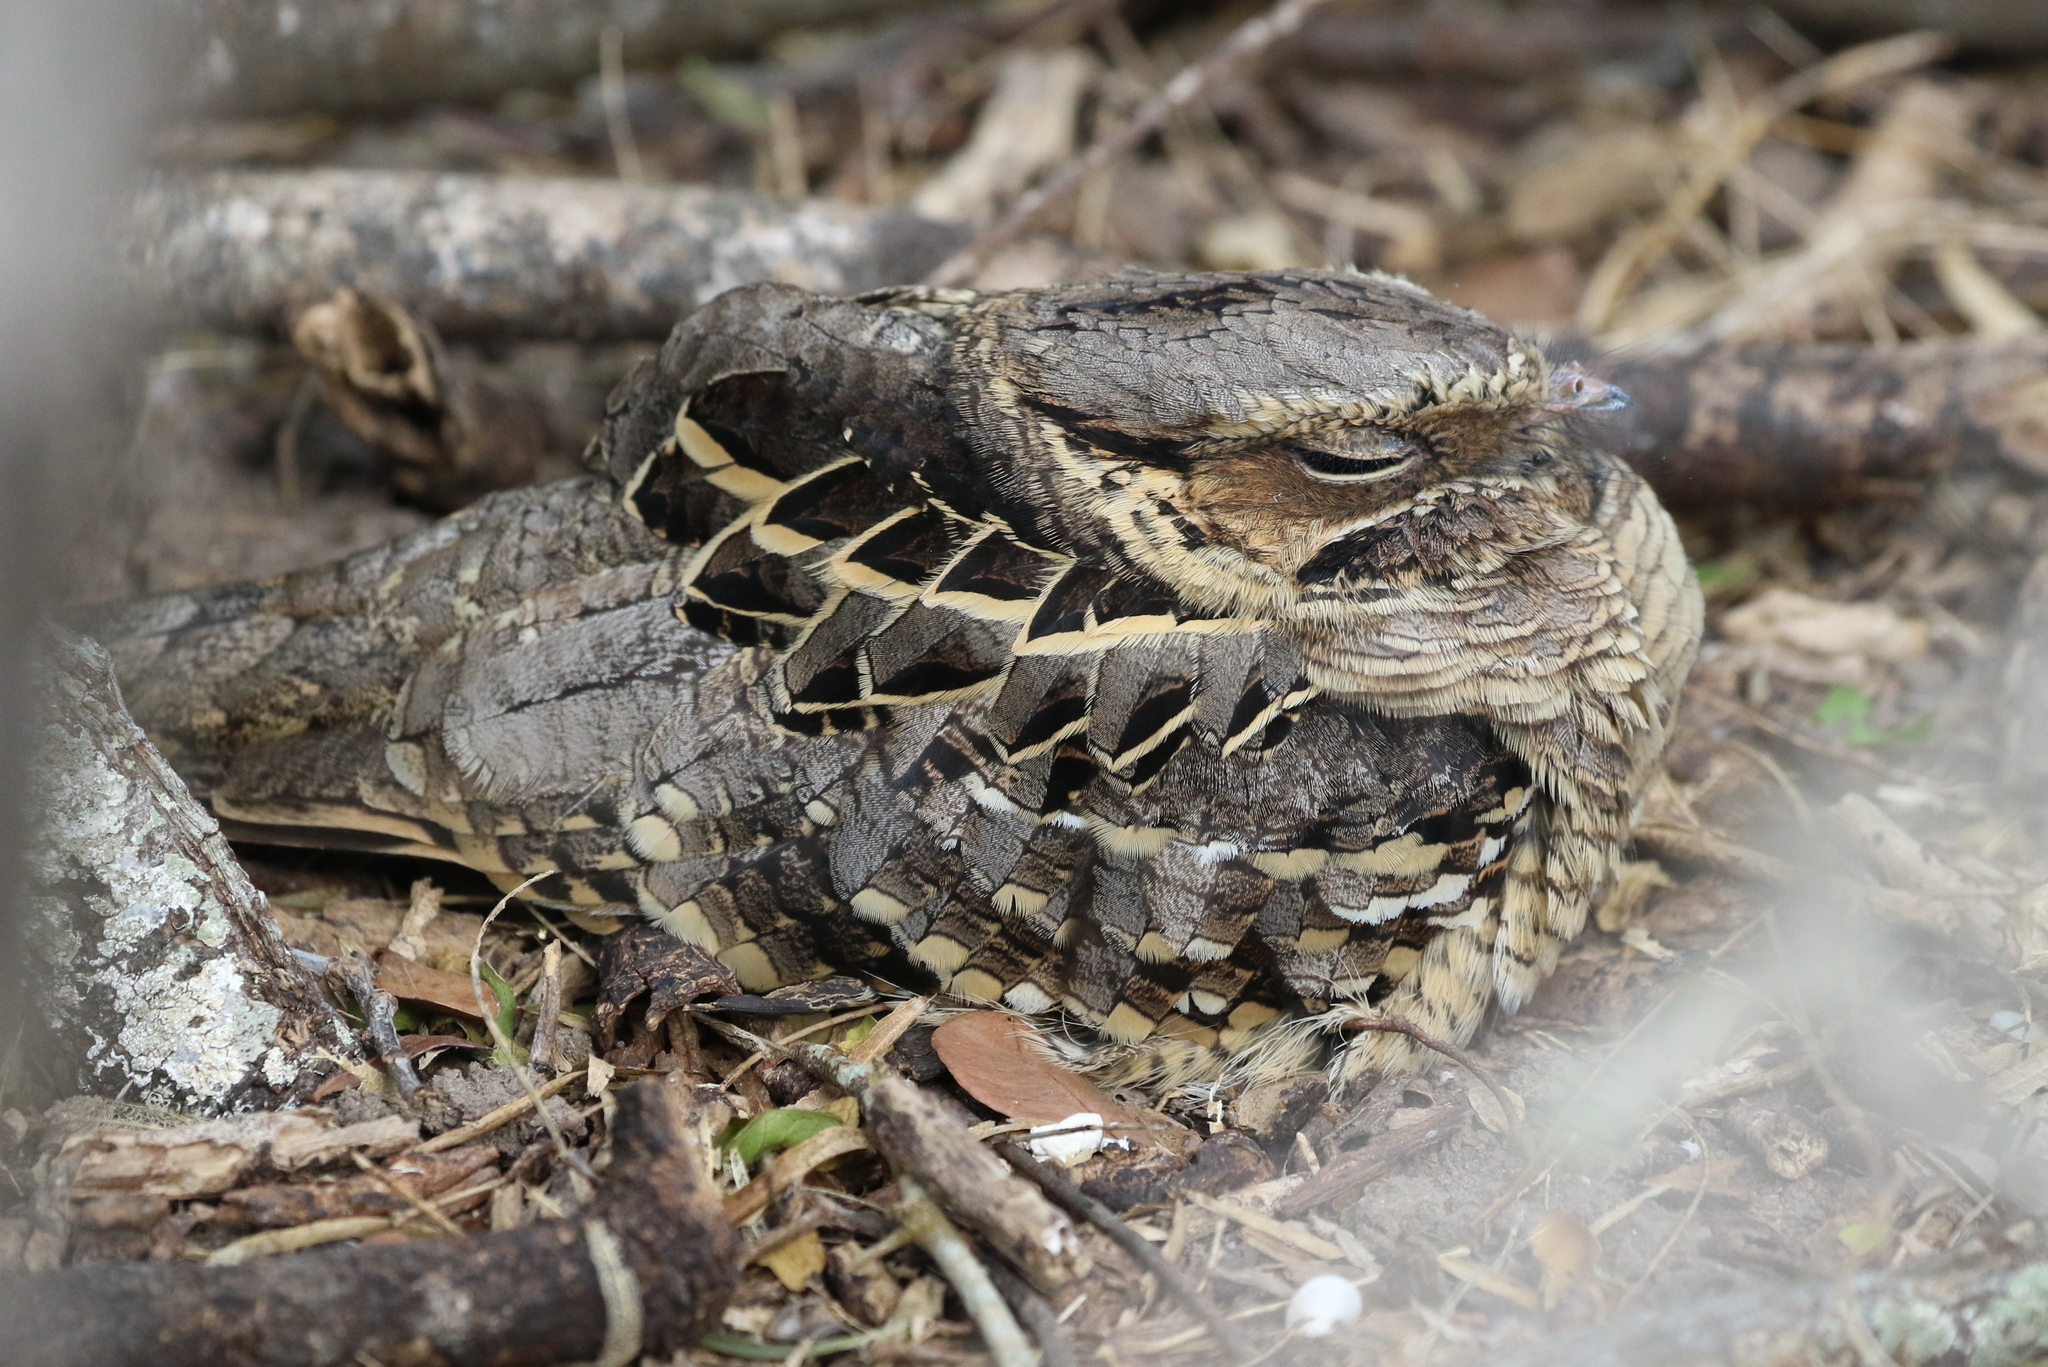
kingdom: Animalia
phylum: Chordata
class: Aves
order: Caprimulgiformes
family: Caprimulgidae
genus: Nyctidromus
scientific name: Nyctidromus albicollis
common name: Pauraque
